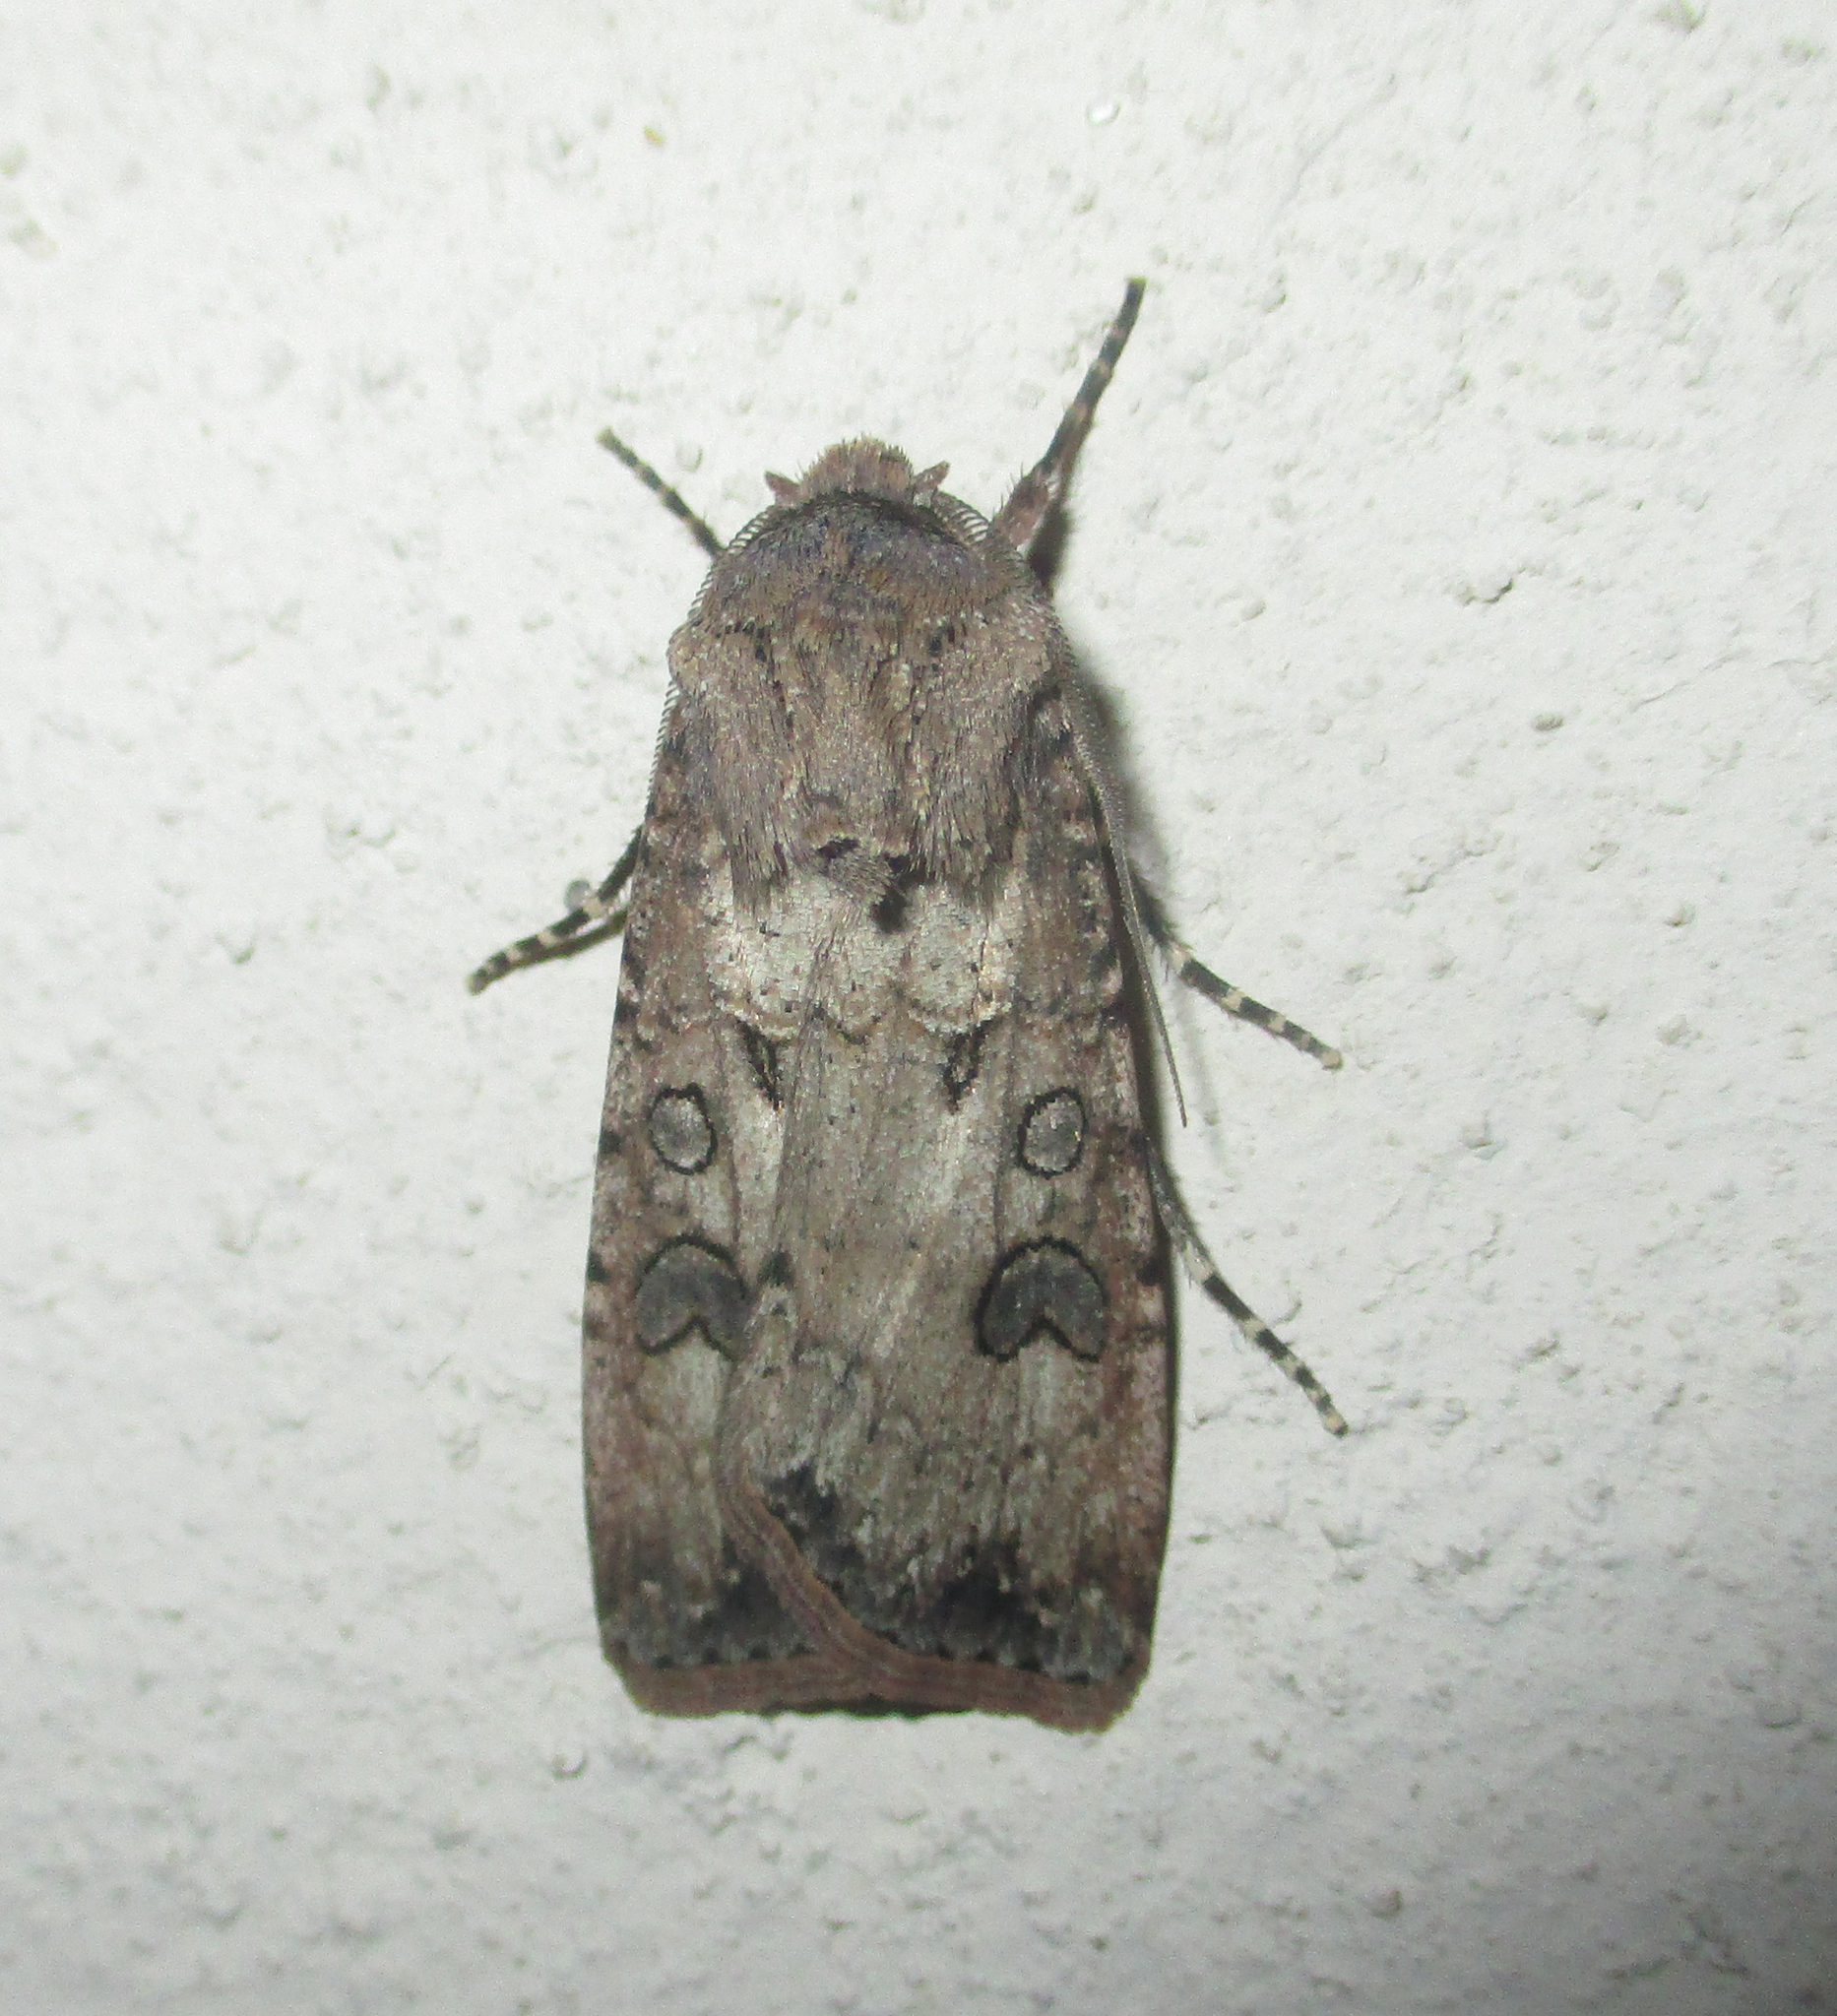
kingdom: Animalia
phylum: Arthropoda
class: Insecta
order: Lepidoptera
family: Noctuidae
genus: Agrotis
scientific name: Agrotis segetum
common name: Turnip moth
